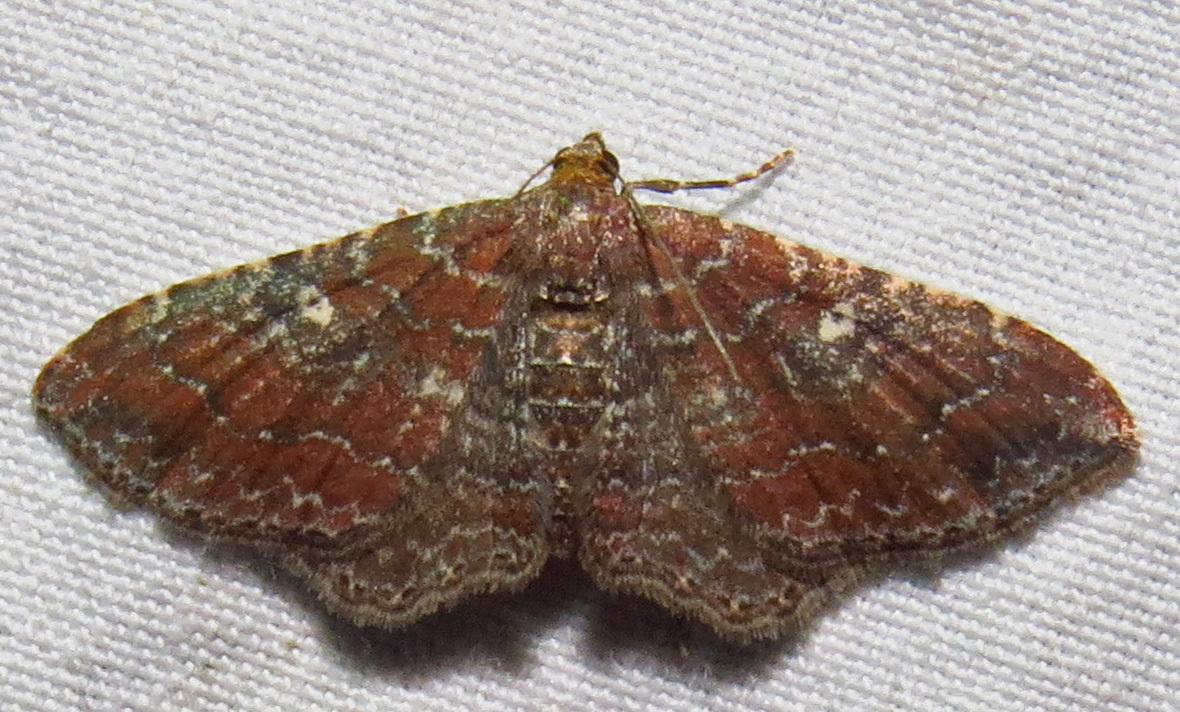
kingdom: Animalia
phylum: Arthropoda
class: Insecta
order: Lepidoptera
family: Geometridae
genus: Orthonama
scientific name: Orthonama obstipata
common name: The gem
